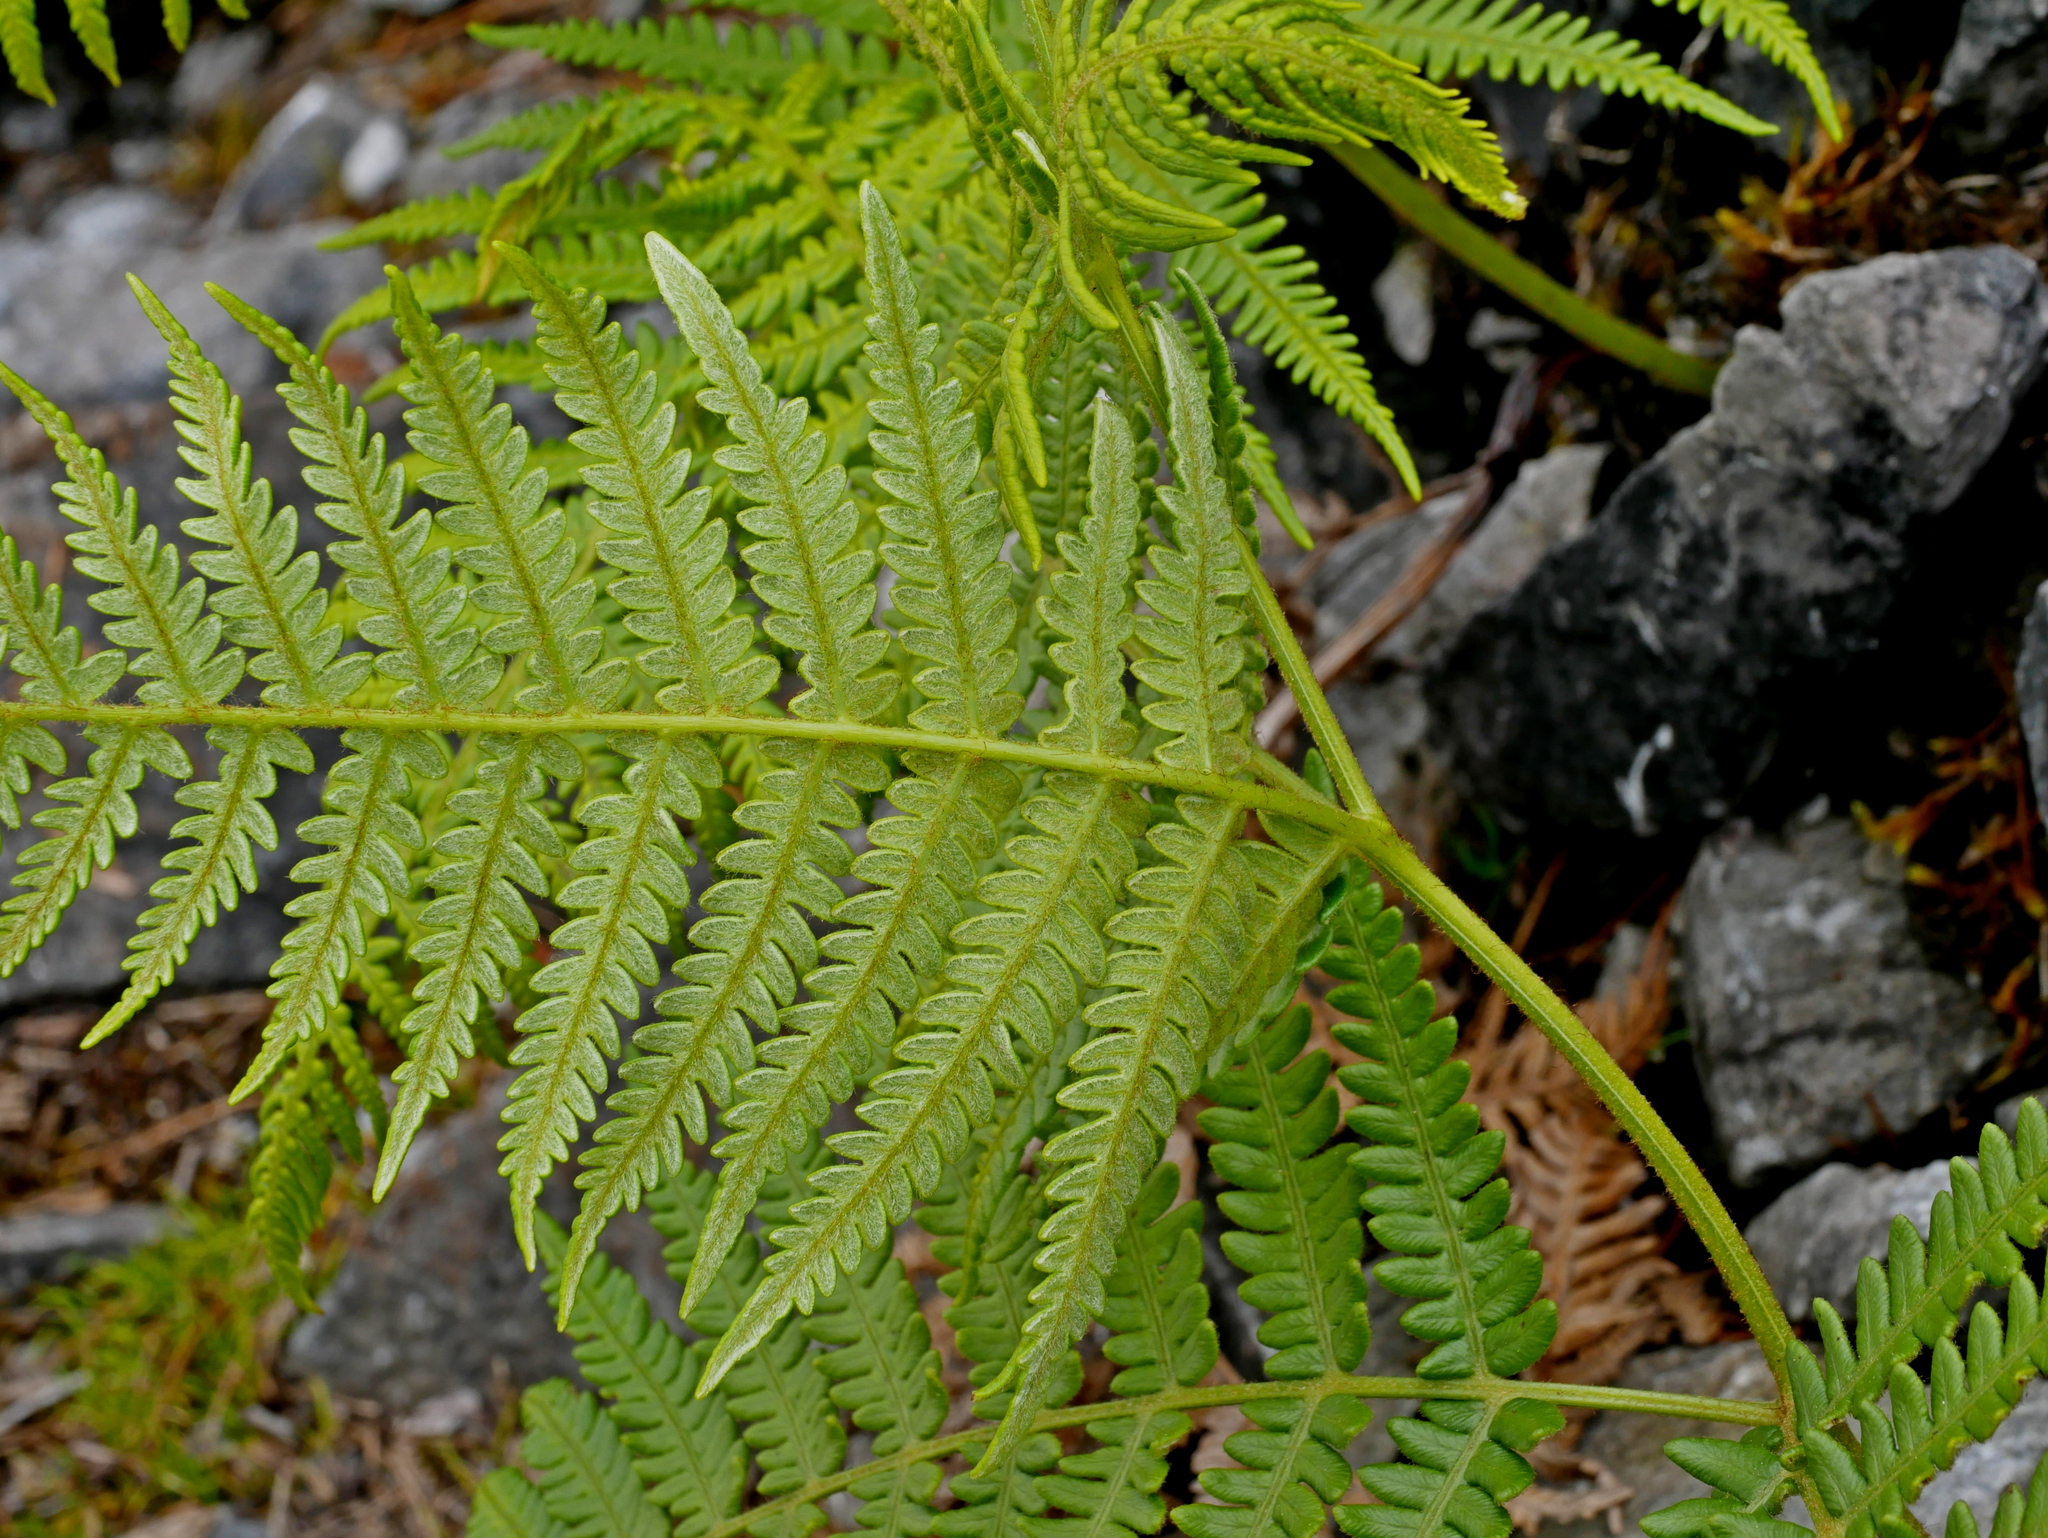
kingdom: Plantae
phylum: Tracheophyta
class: Polypodiopsida
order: Polypodiales
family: Dennstaedtiaceae
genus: Pteridium
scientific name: Pteridium aquilinum
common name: Bracken
